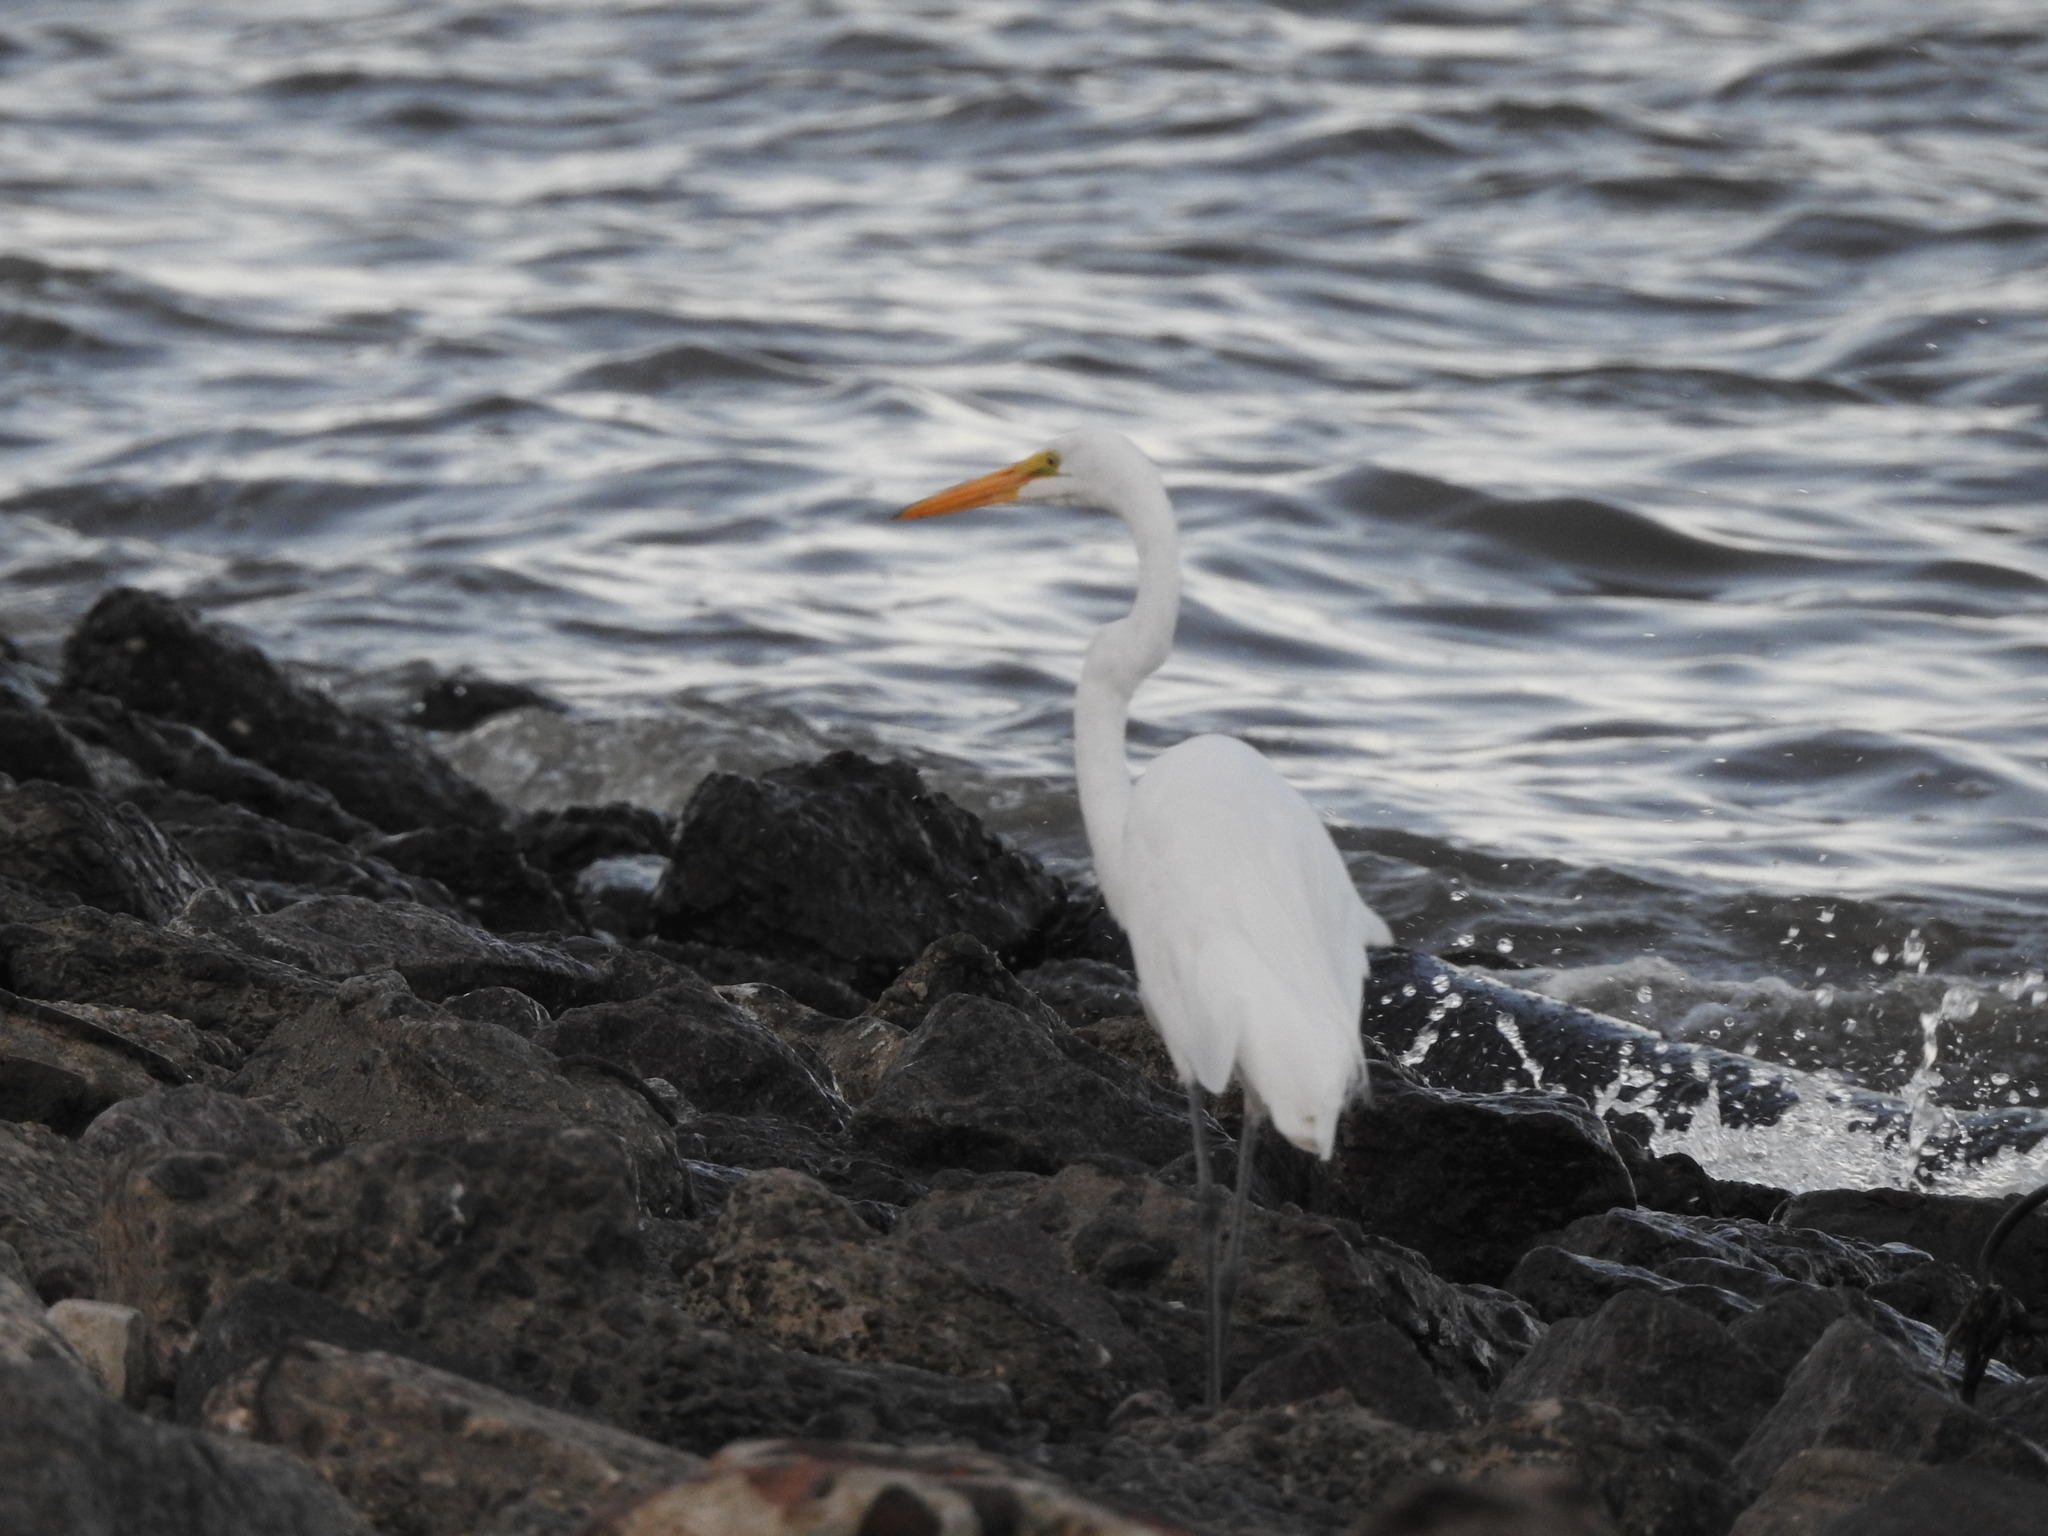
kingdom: Animalia
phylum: Chordata
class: Aves
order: Pelecaniformes
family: Ardeidae
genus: Ardea
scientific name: Ardea alba
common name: Great egret
